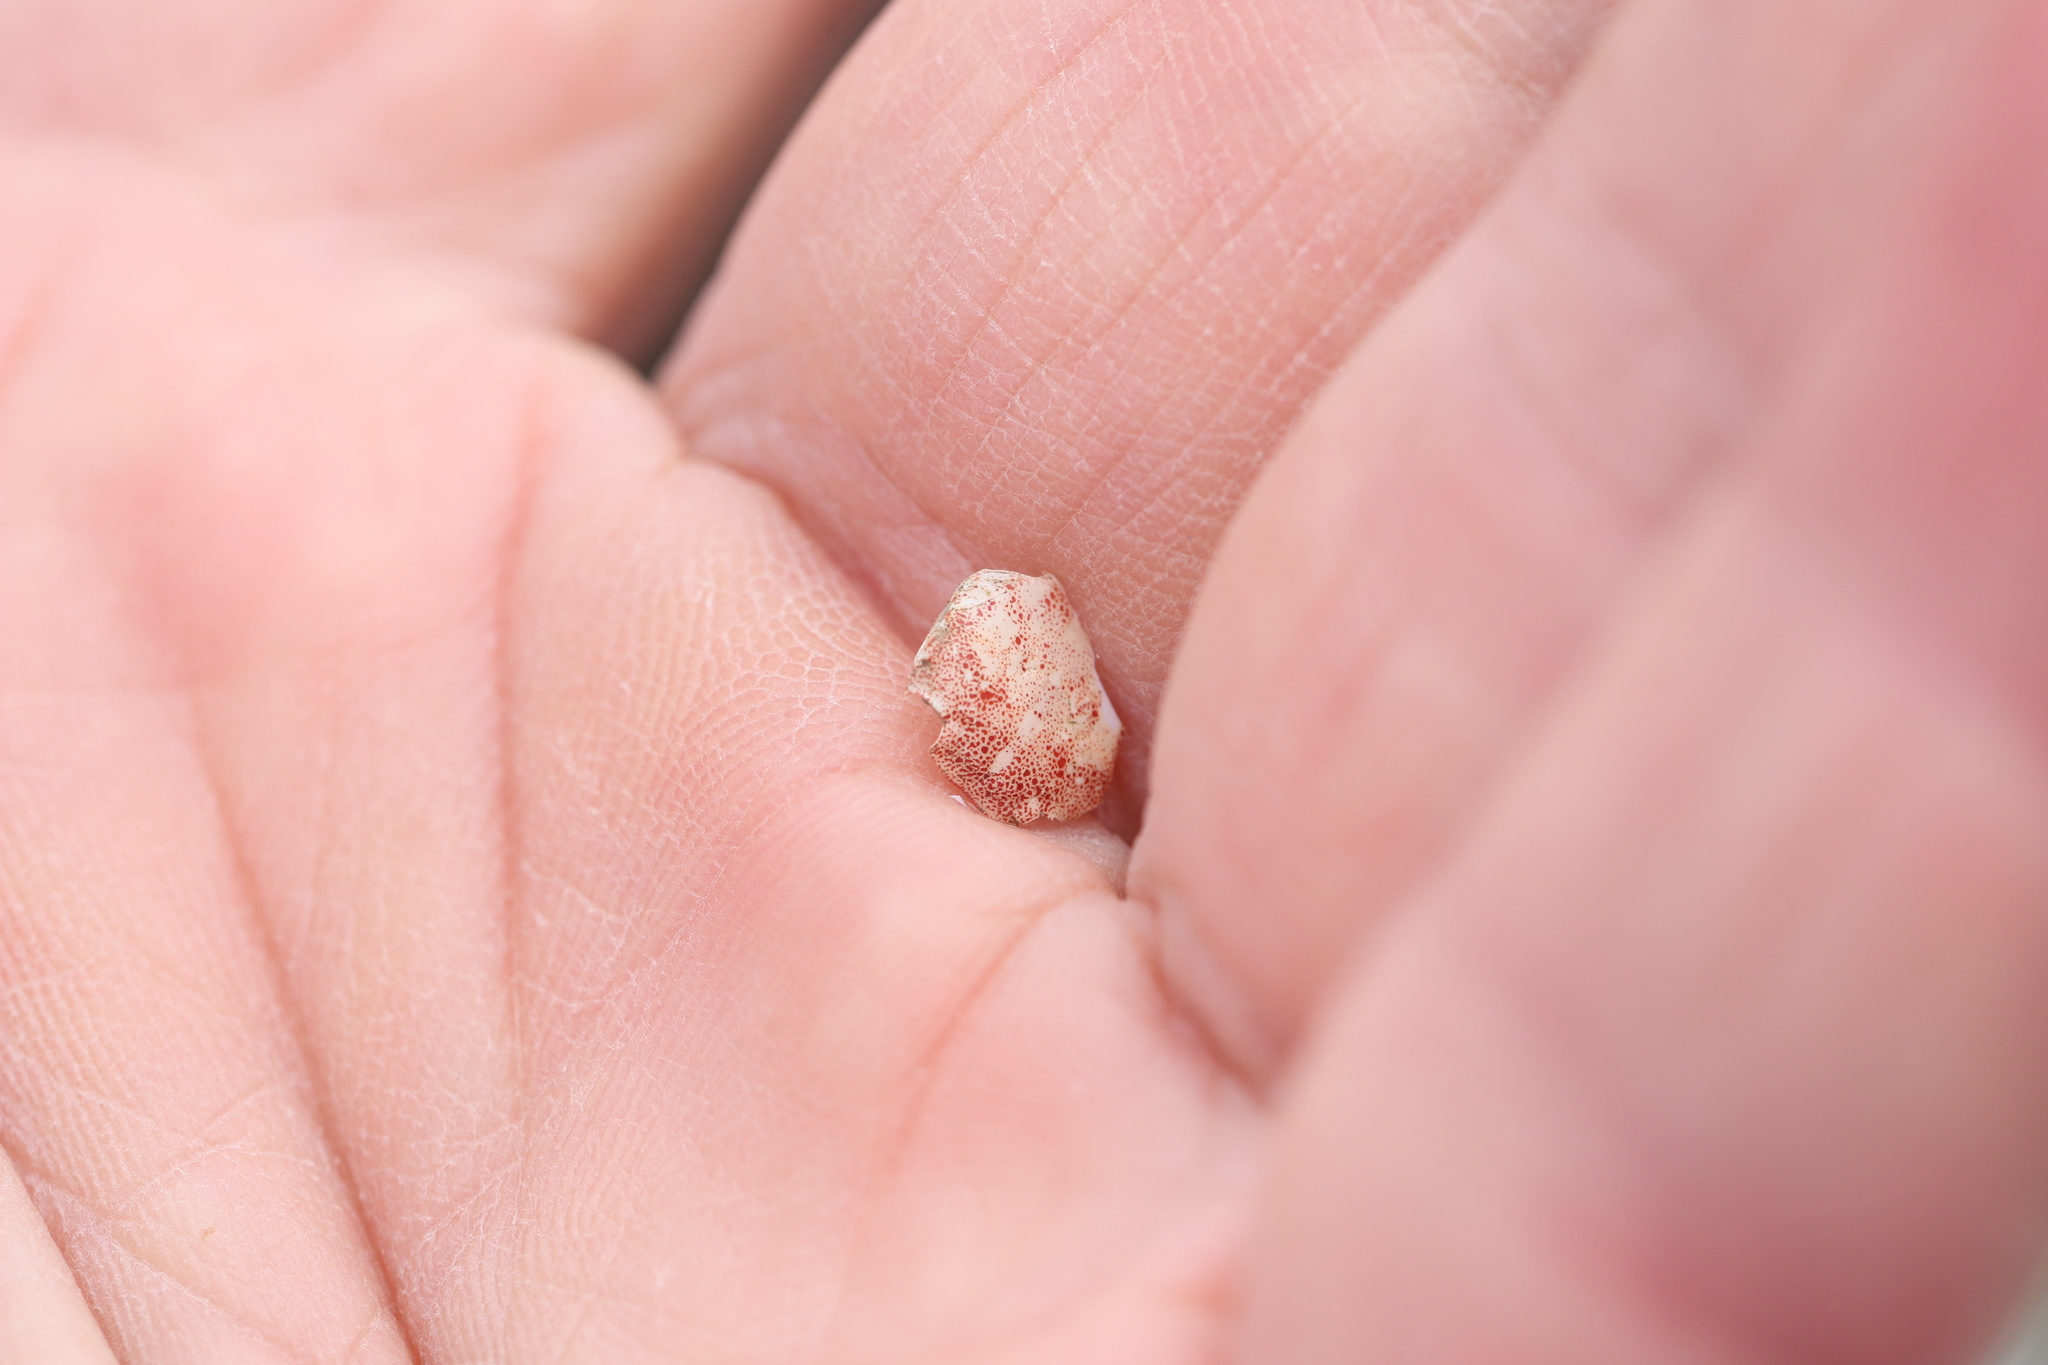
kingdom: Animalia
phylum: Arthropoda
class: Malacostraca
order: Decapoda
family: Varunidae
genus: Hemigrapsus
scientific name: Hemigrapsus sanguineus
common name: Asian shore crab
